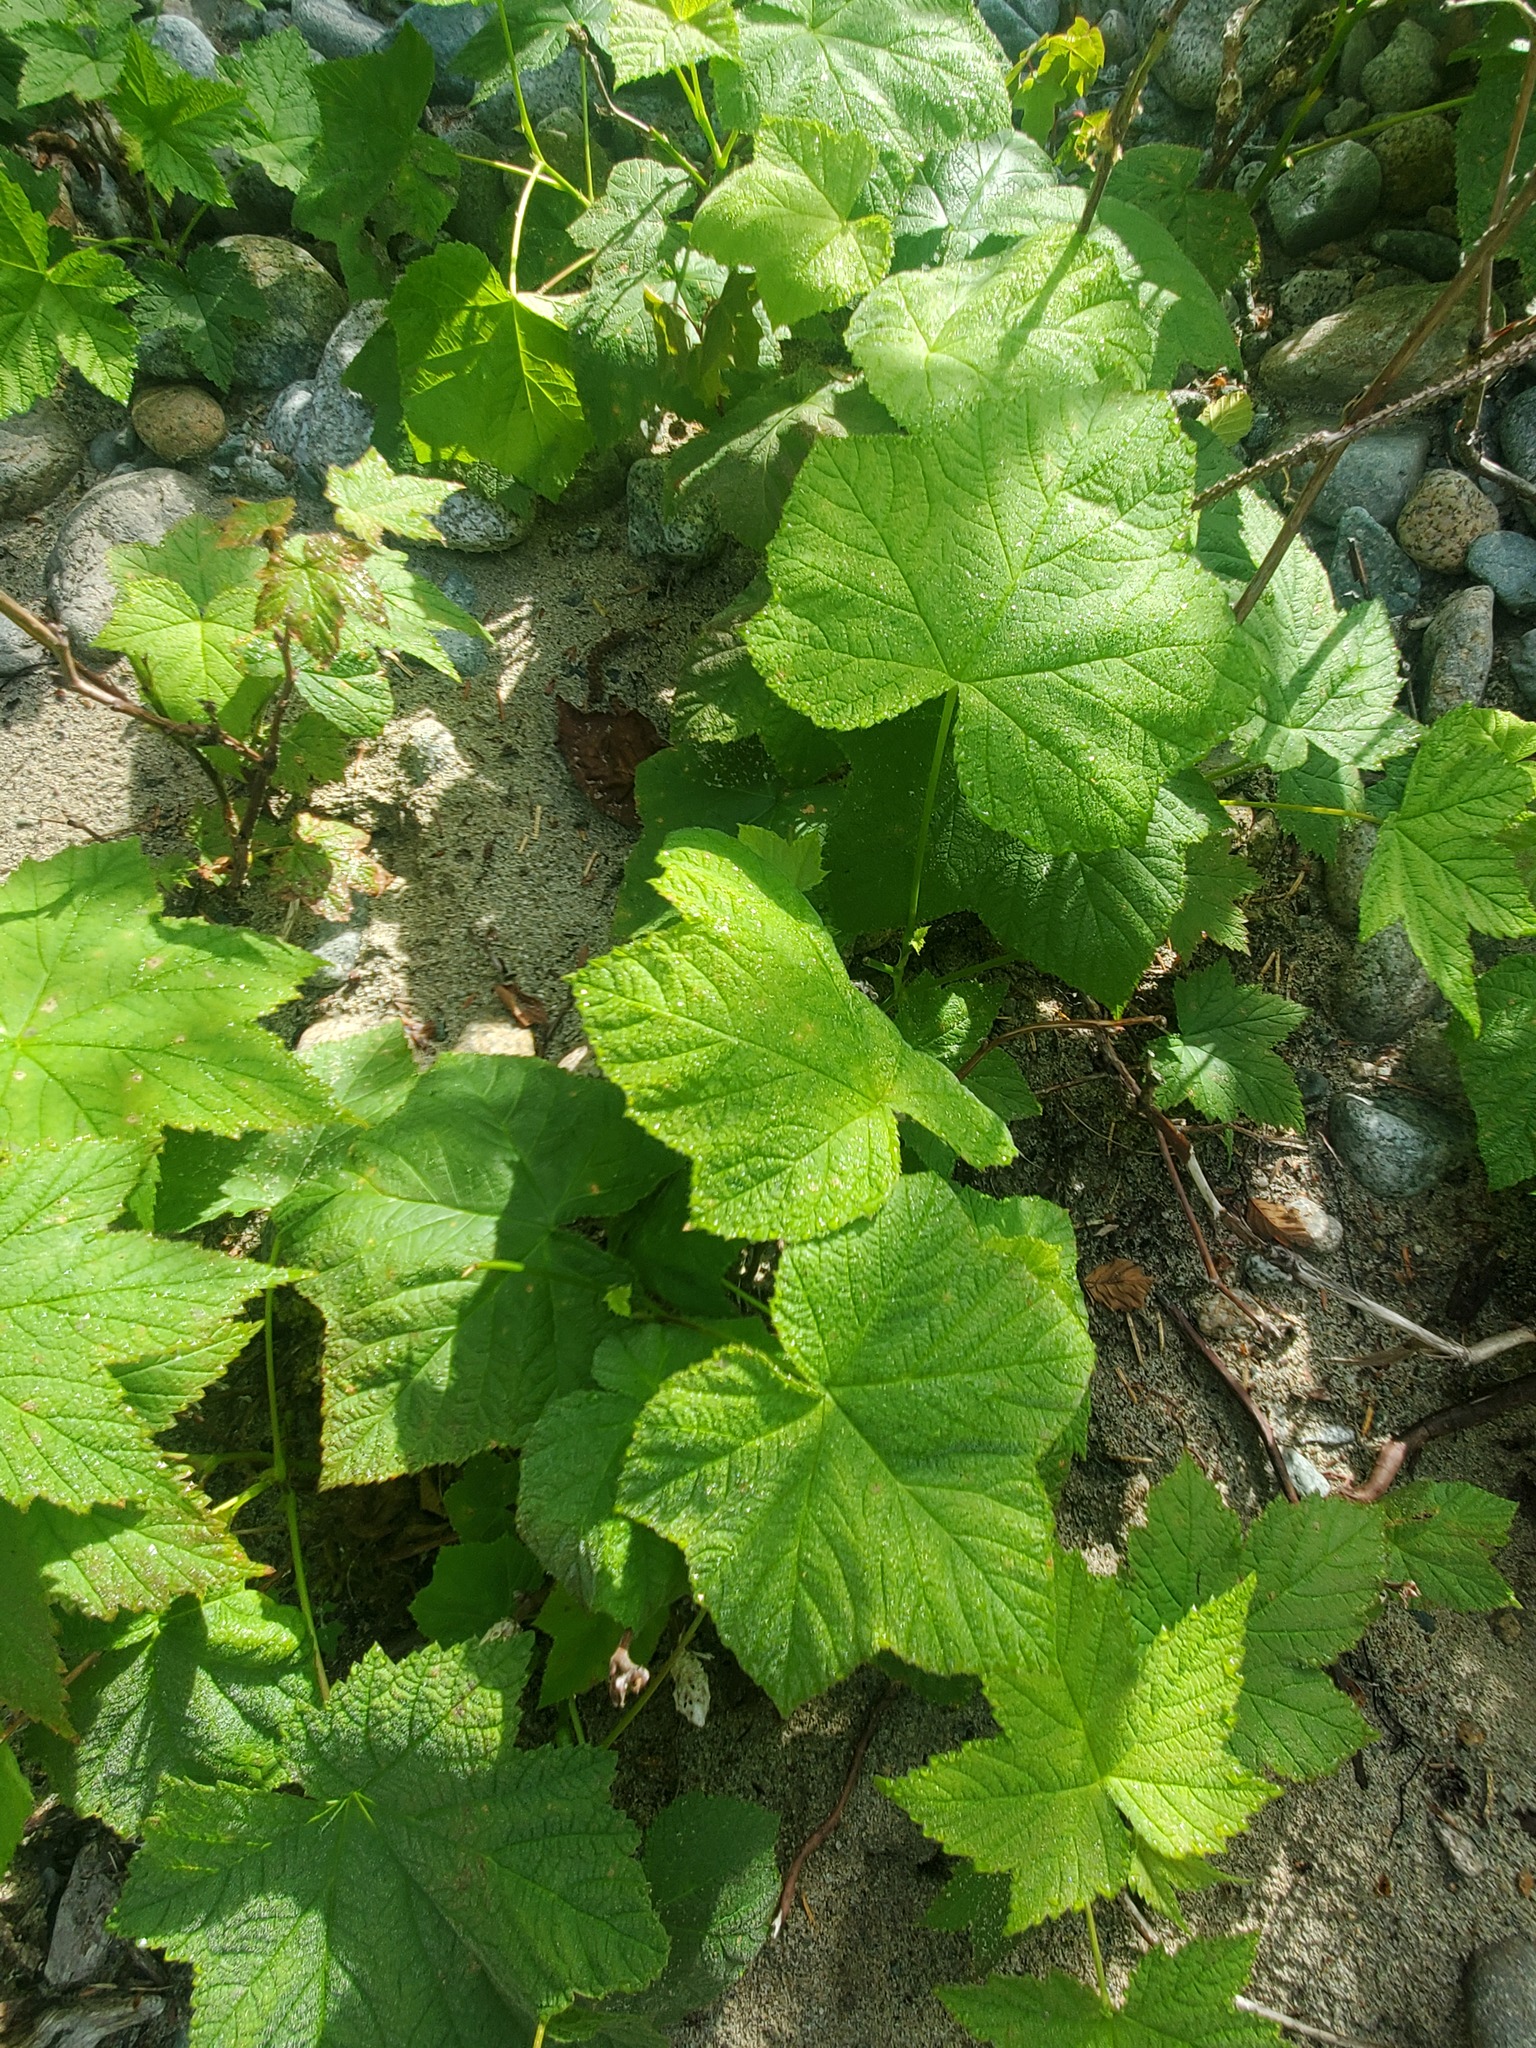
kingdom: Plantae
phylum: Tracheophyta
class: Magnoliopsida
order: Rosales
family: Rosaceae
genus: Rubus
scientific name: Rubus parviflorus
